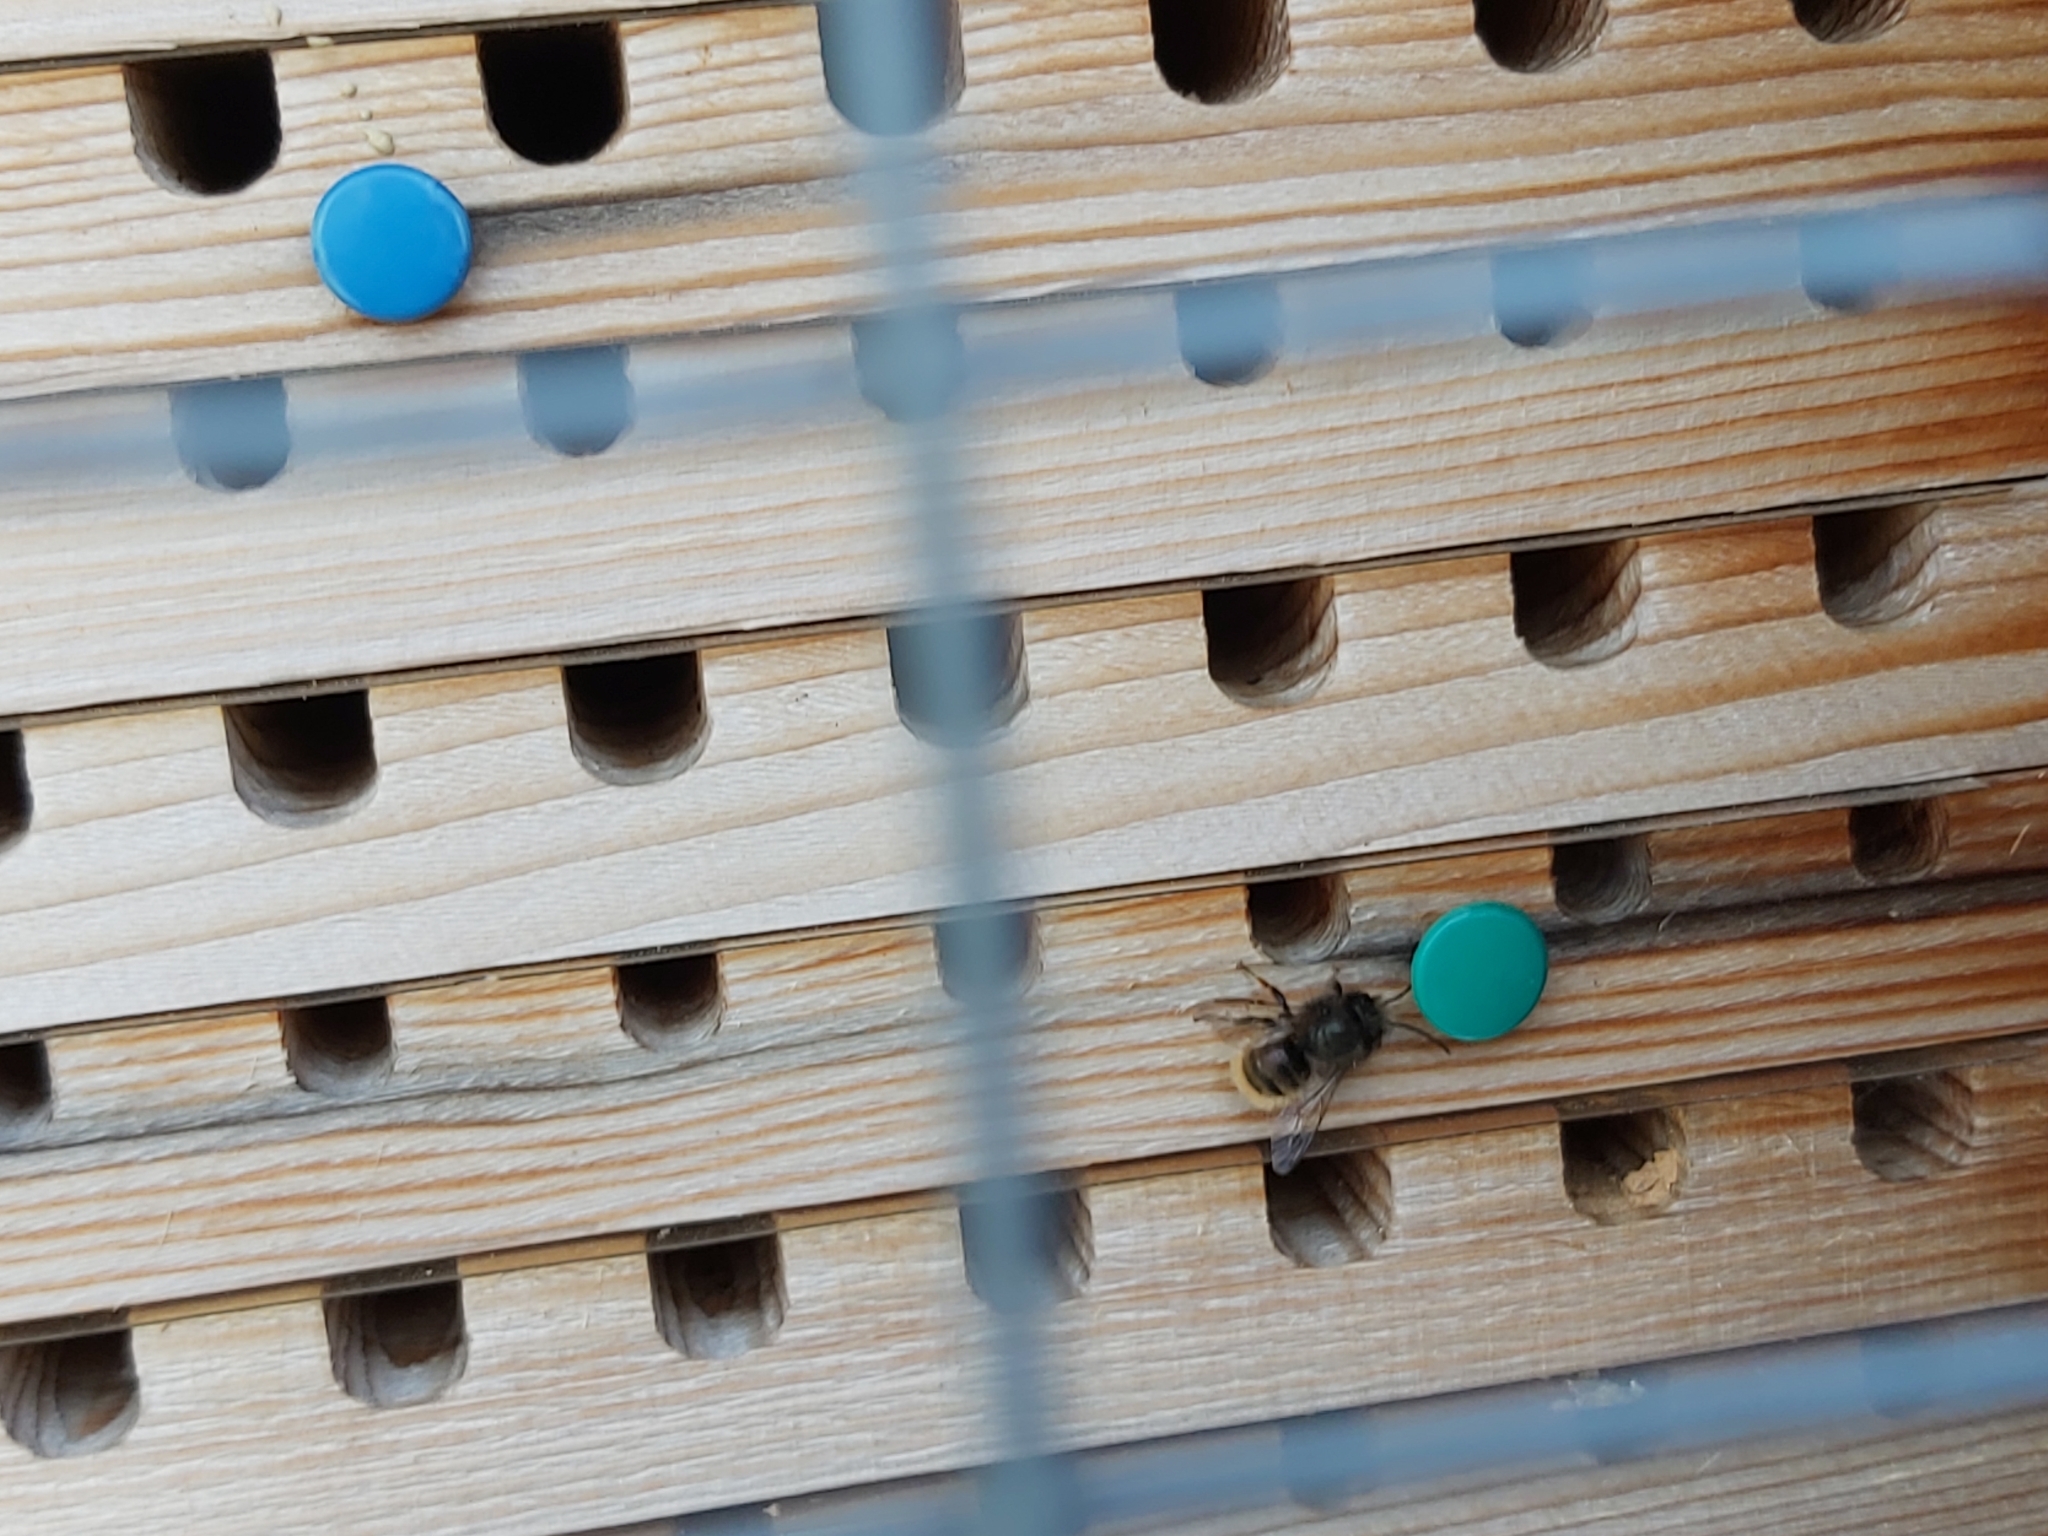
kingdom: Animalia
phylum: Arthropoda
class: Insecta
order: Hymenoptera
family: Megachilidae
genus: Osmia
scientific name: Osmia cornuta
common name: Mason bee
